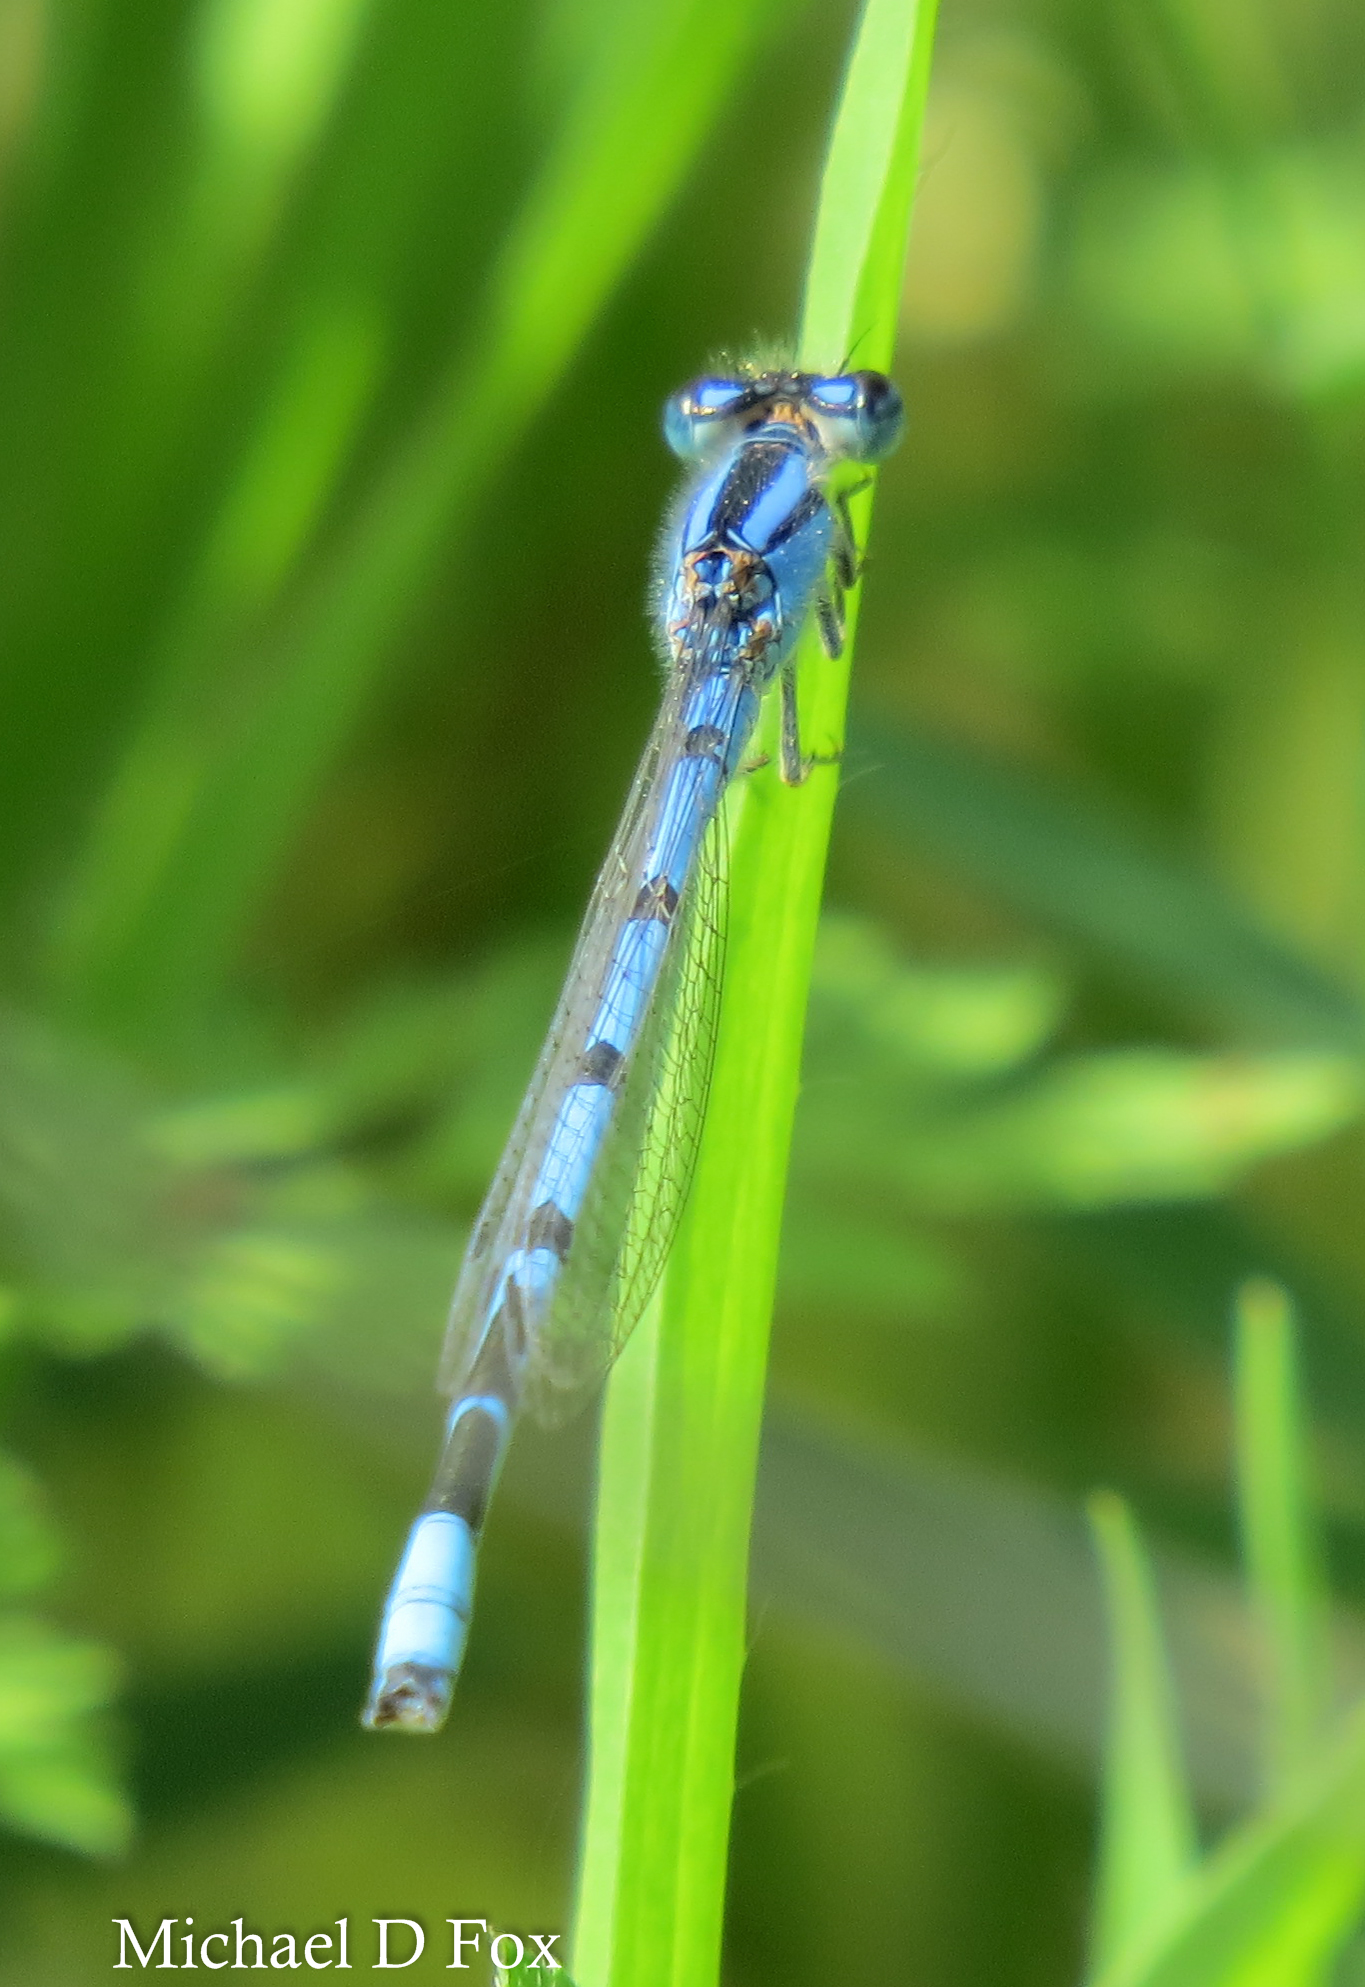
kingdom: Animalia
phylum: Arthropoda
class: Insecta
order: Odonata
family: Coenagrionidae
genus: Enallagma
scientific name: Enallagma civile
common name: Damselfly
